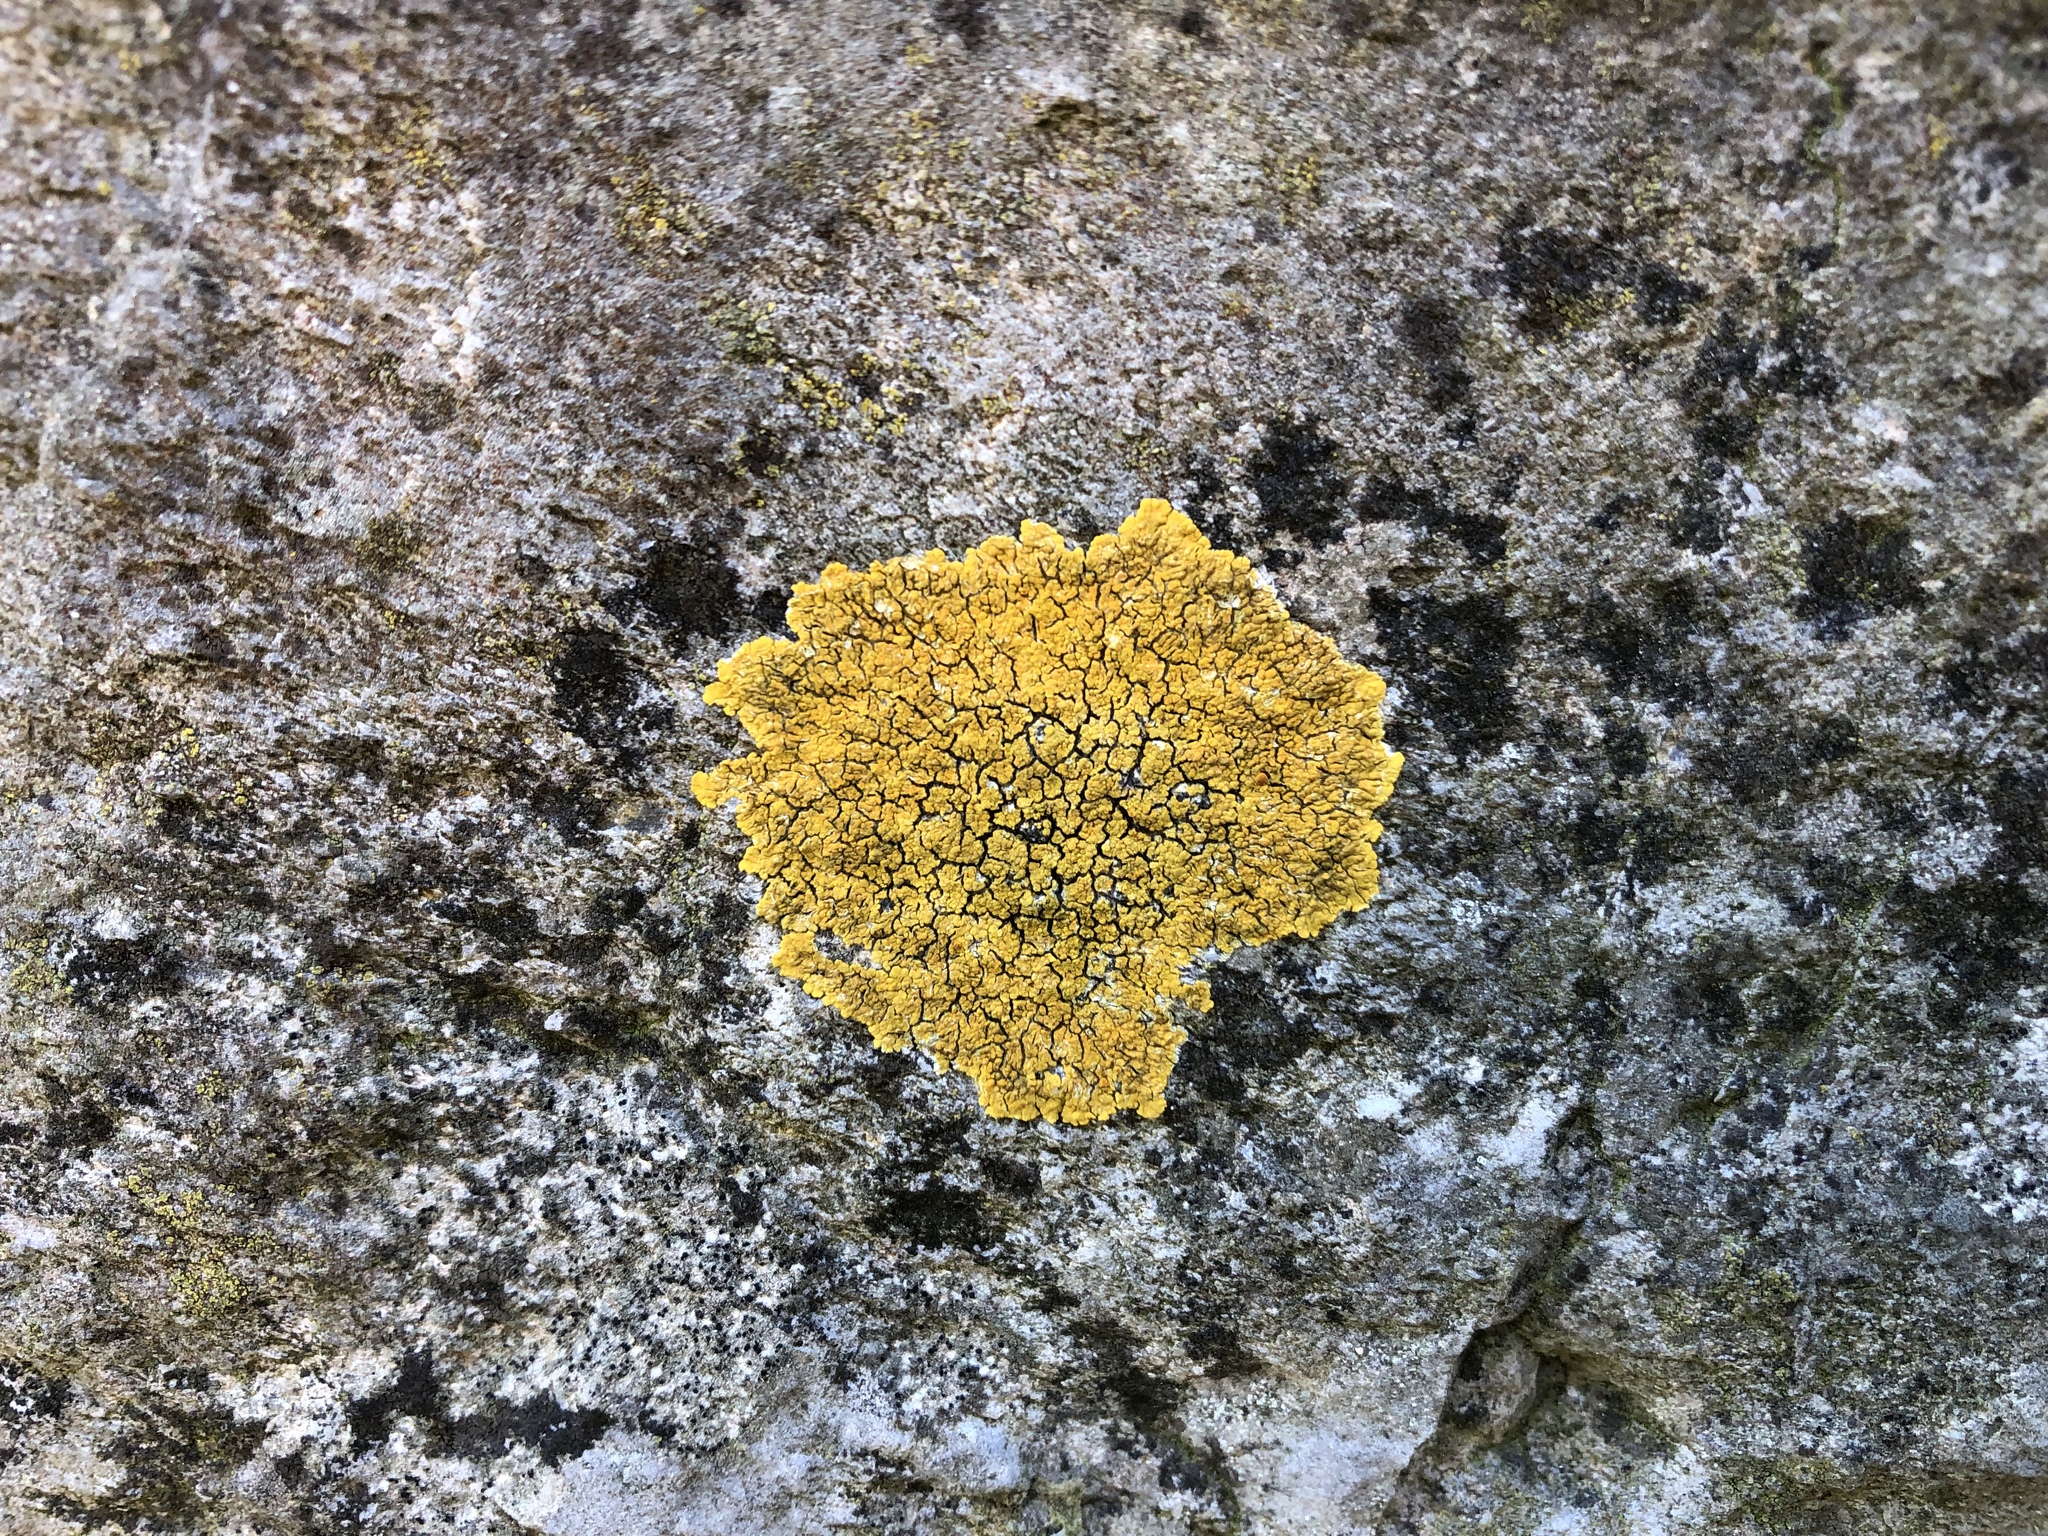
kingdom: Fungi
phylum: Ascomycota
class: Lecanoromycetes
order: Teloschistales
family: Teloschistaceae
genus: Xanthoria
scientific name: Xanthoria parietina
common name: Common orange lichen
